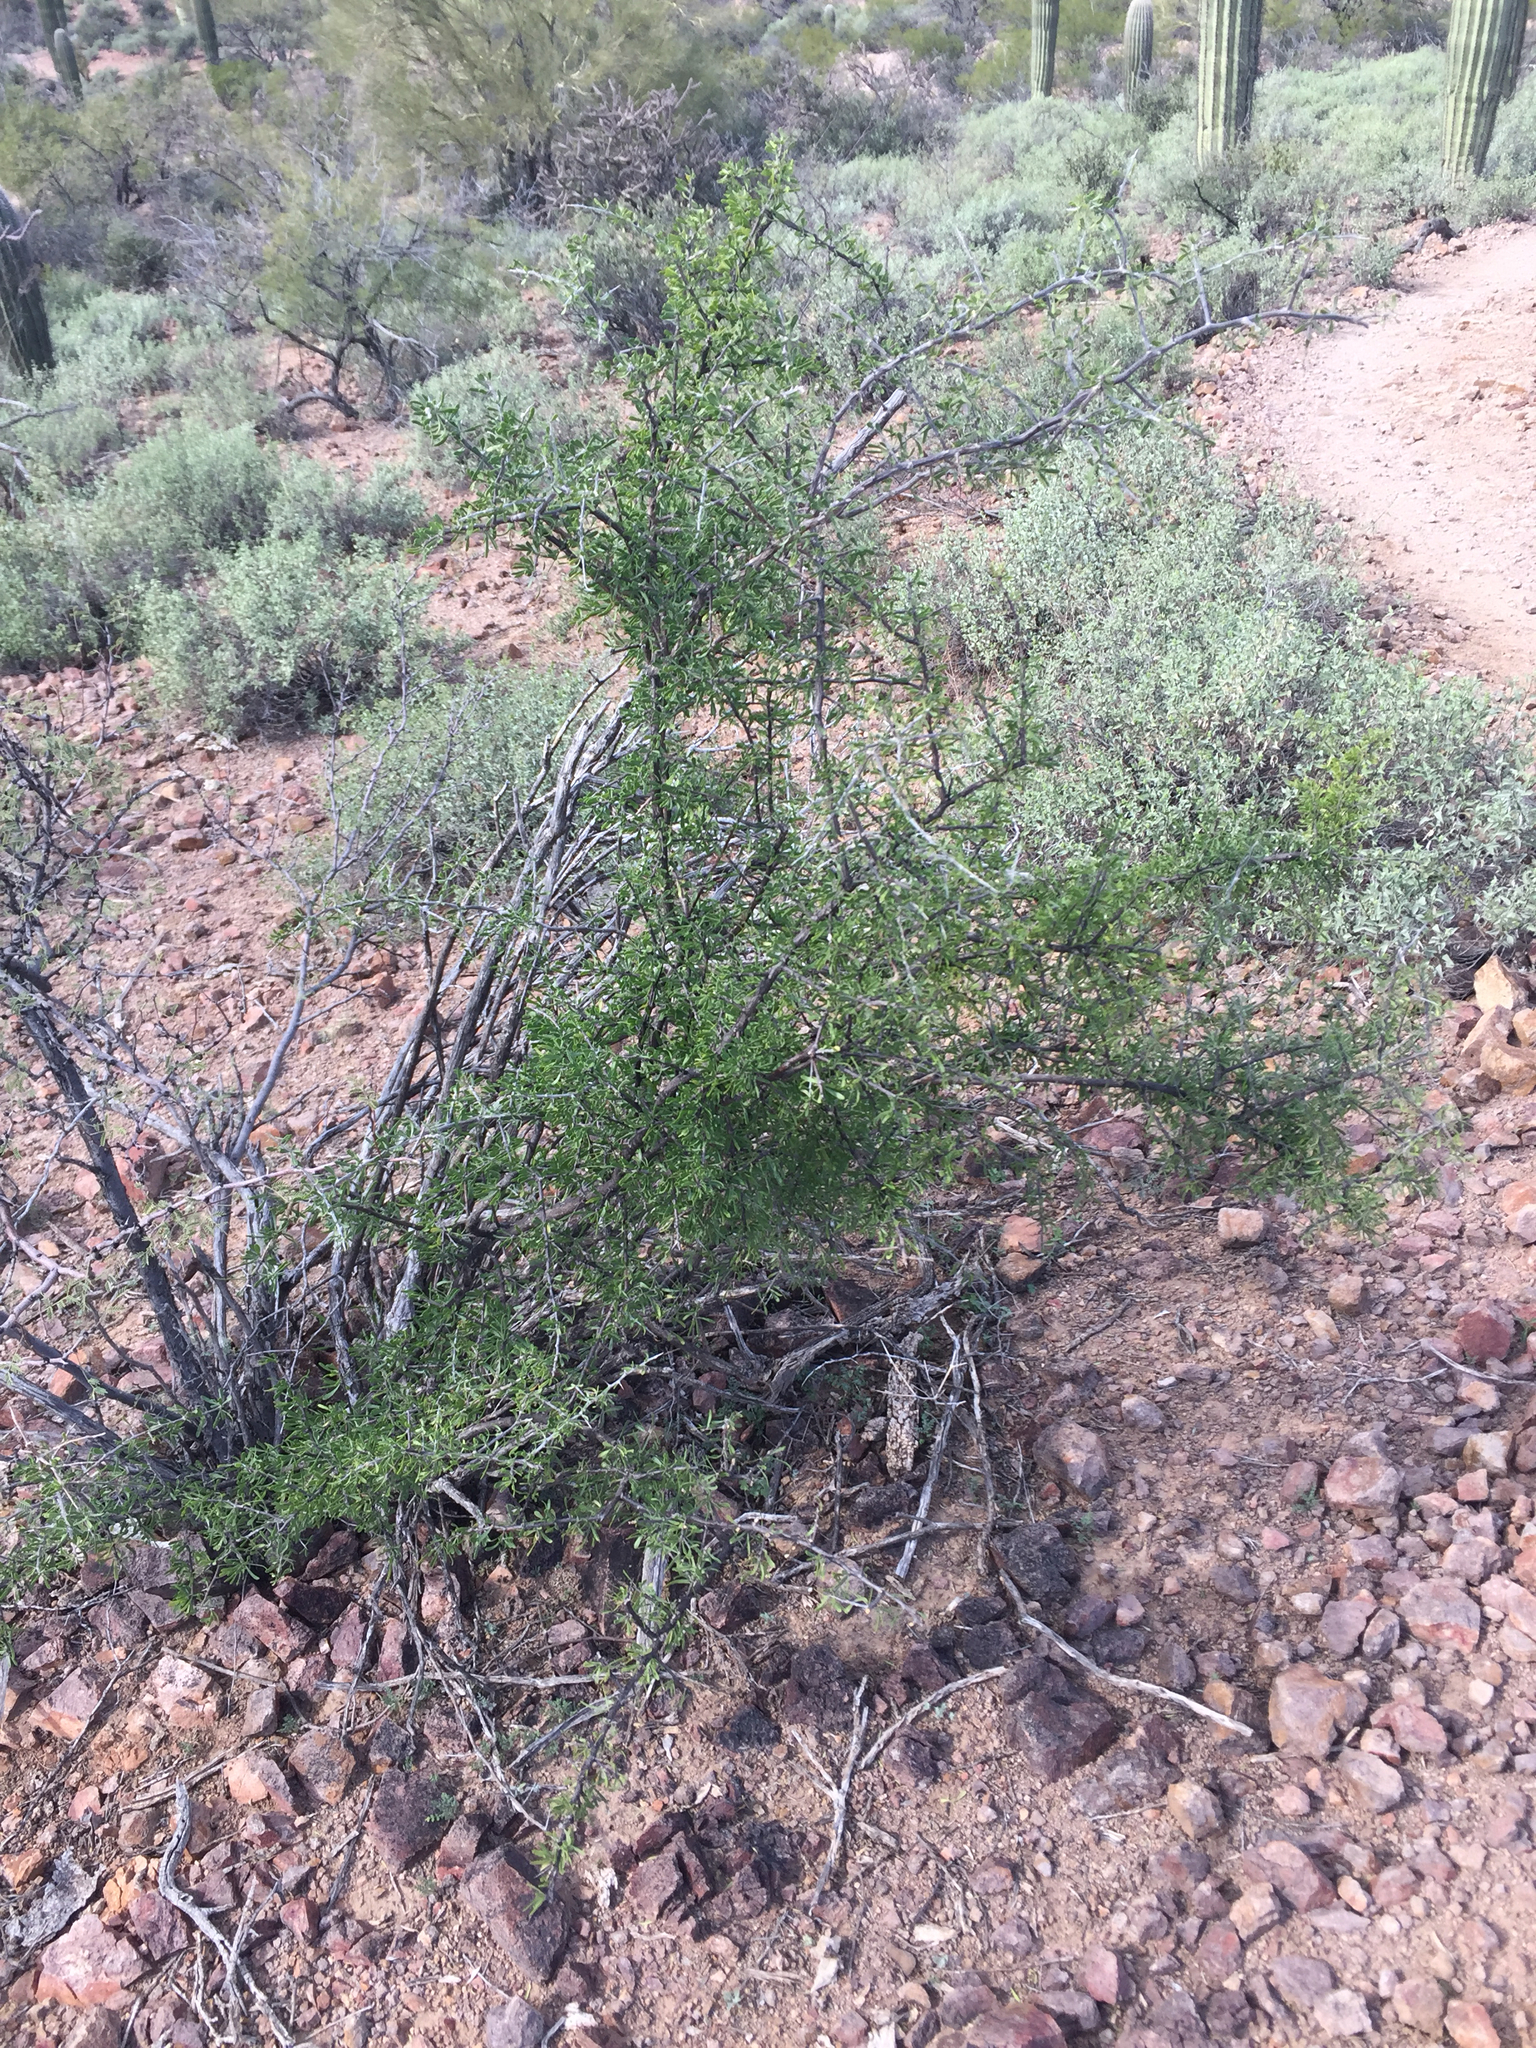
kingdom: Plantae
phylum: Tracheophyta
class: Magnoliopsida
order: Solanales
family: Solanaceae
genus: Lycium
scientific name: Lycium berlandieri
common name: Berlandier wolfberry
